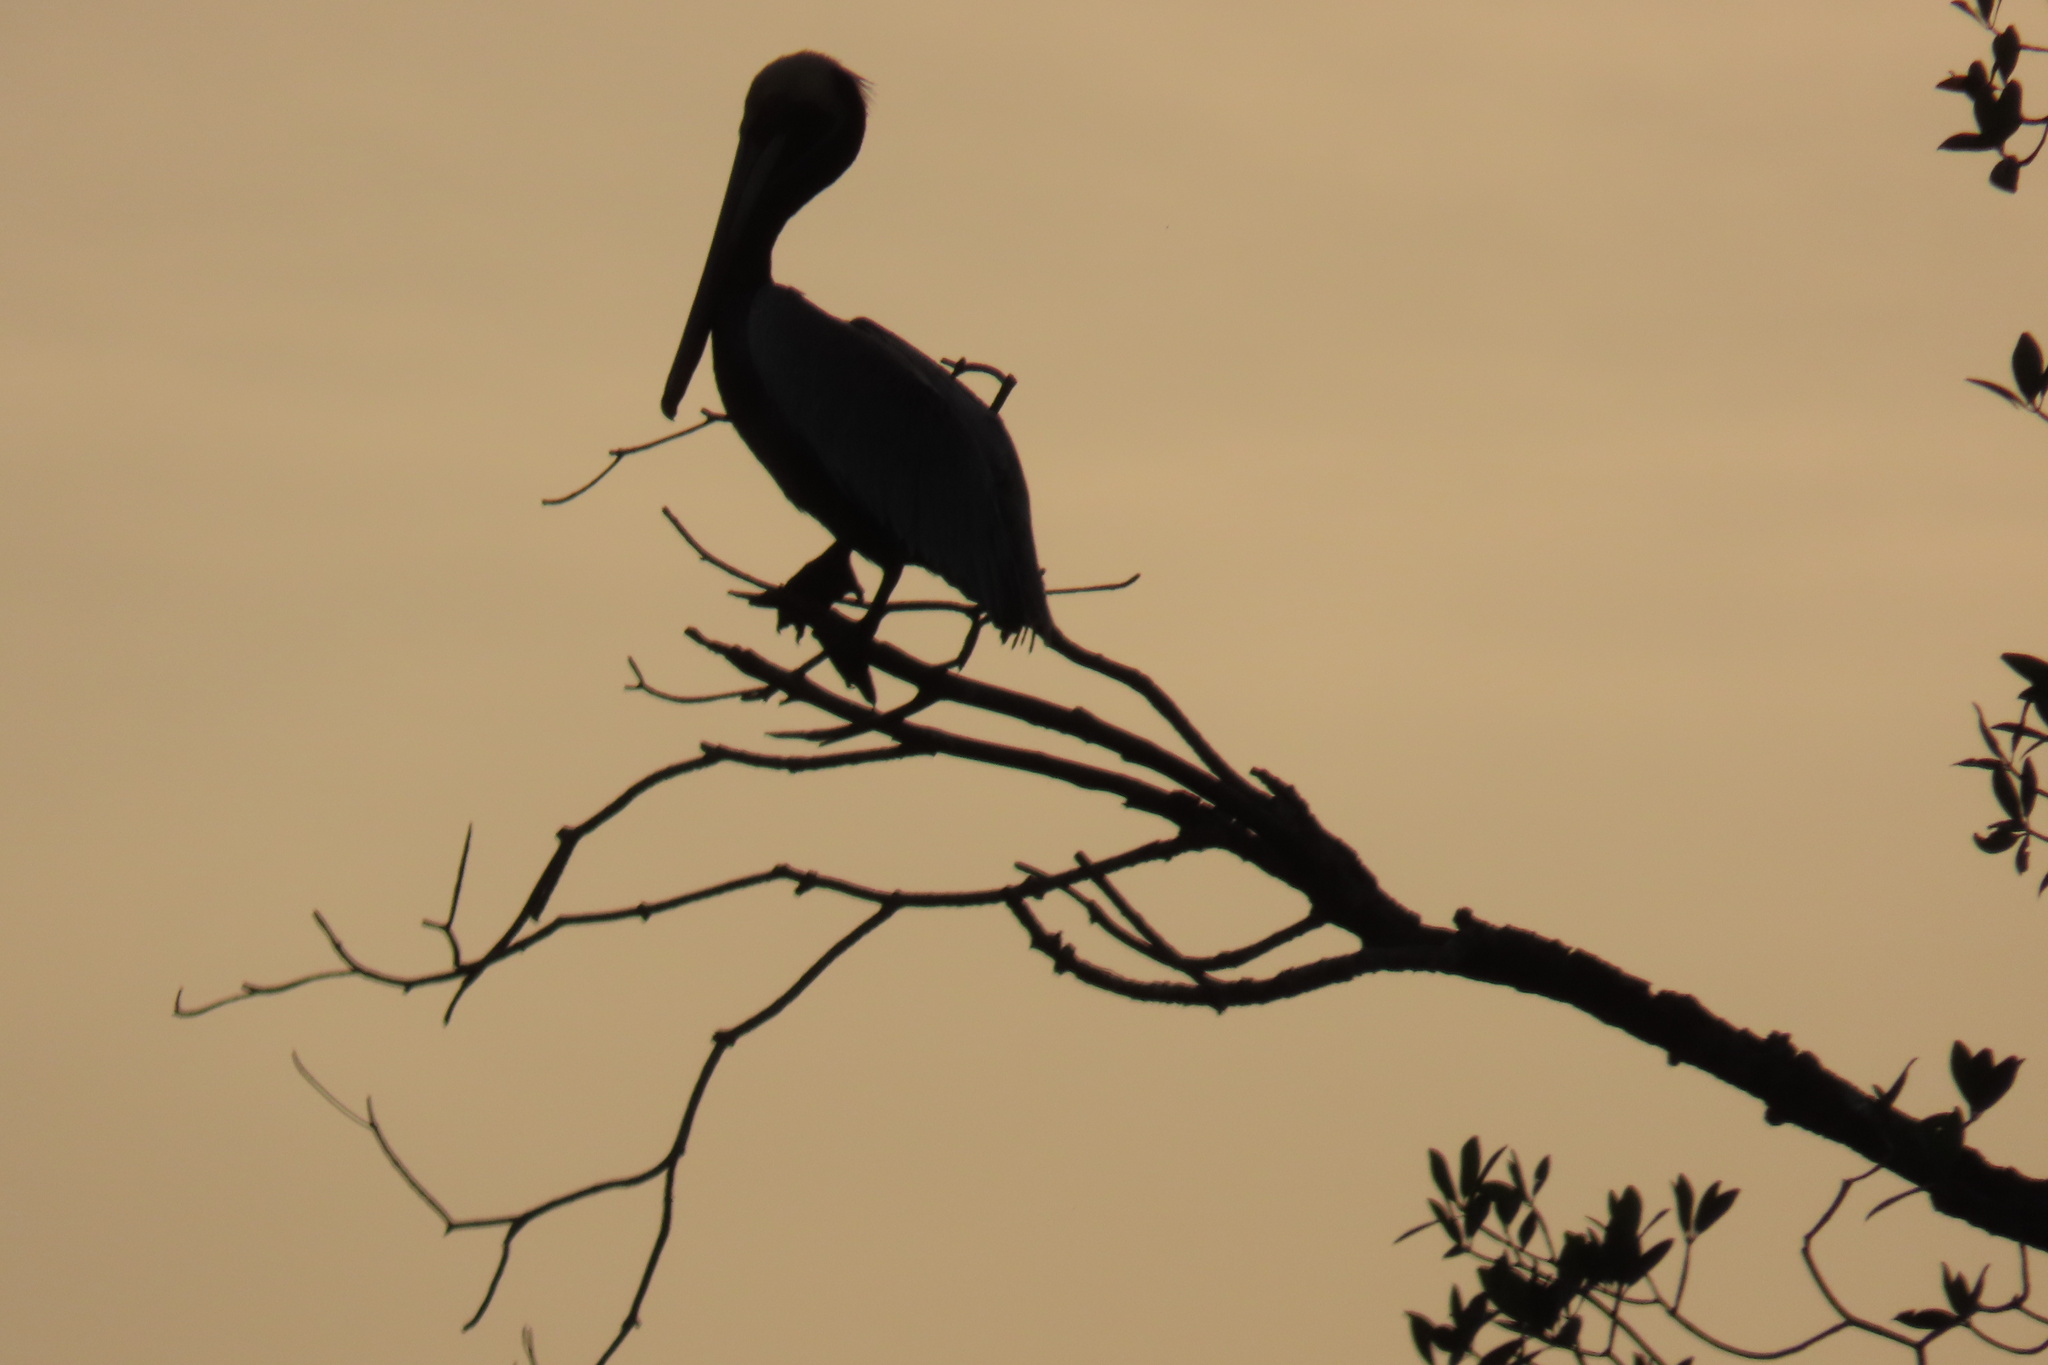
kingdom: Animalia
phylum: Chordata
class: Aves
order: Pelecaniformes
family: Pelecanidae
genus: Pelecanus
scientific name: Pelecanus occidentalis
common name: Brown pelican
